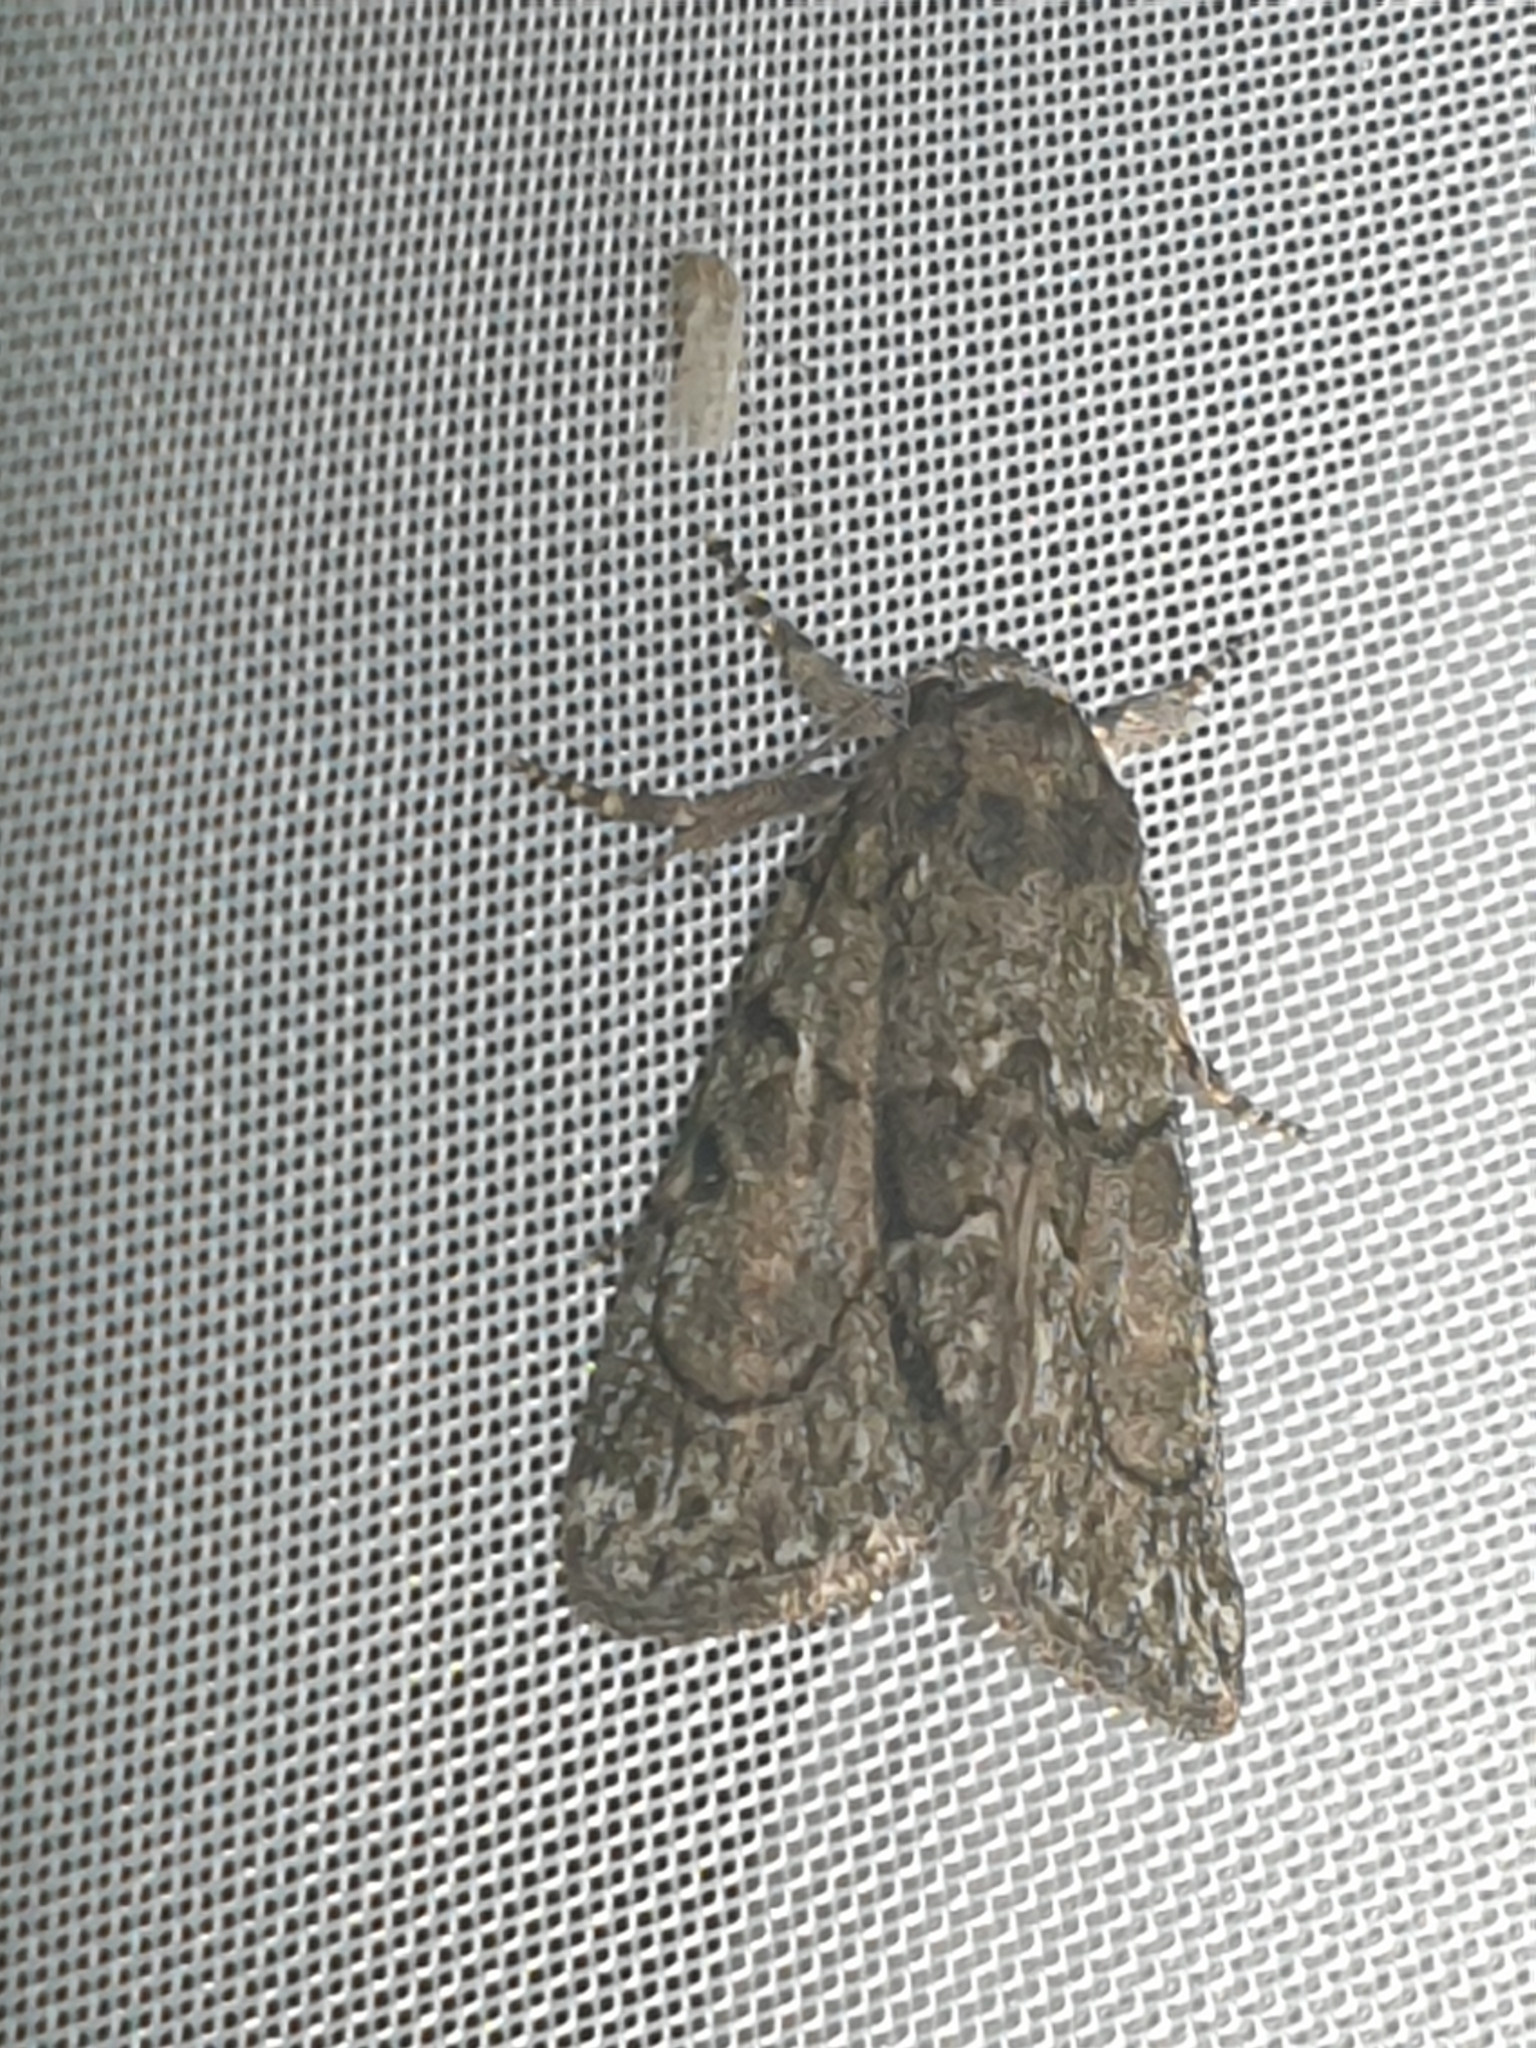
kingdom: Animalia
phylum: Arthropoda
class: Insecta
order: Lepidoptera
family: Noctuidae
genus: Cryphia
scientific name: Cryphia fraudatricula
